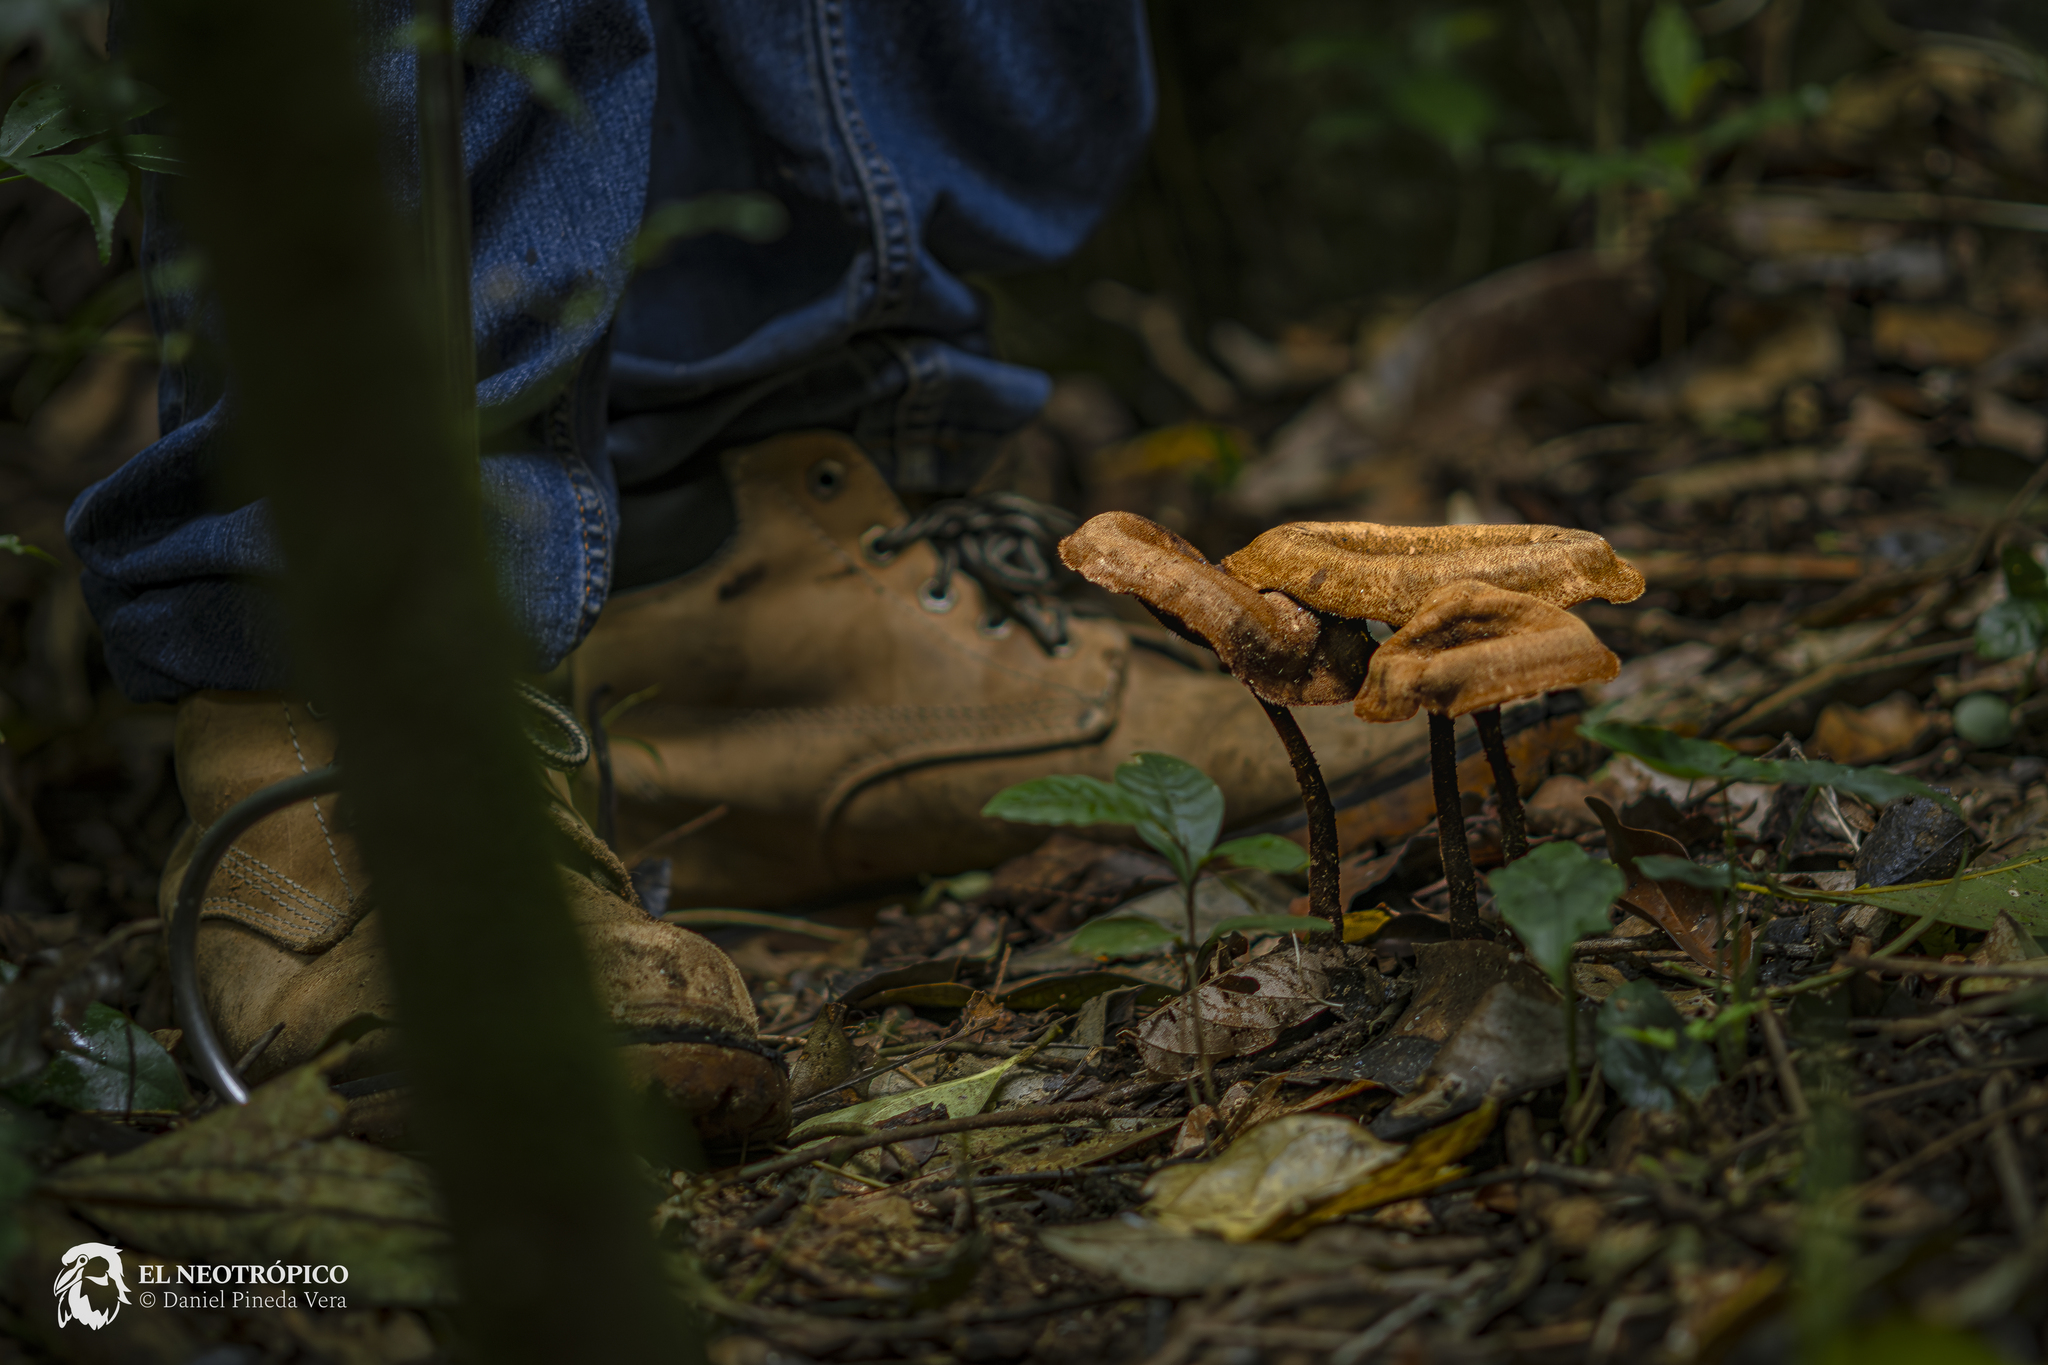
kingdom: Fungi
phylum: Basidiomycota
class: Agaricomycetes
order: Polyporales
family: Polyporaceae
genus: Lentinus
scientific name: Lentinus velutinus
